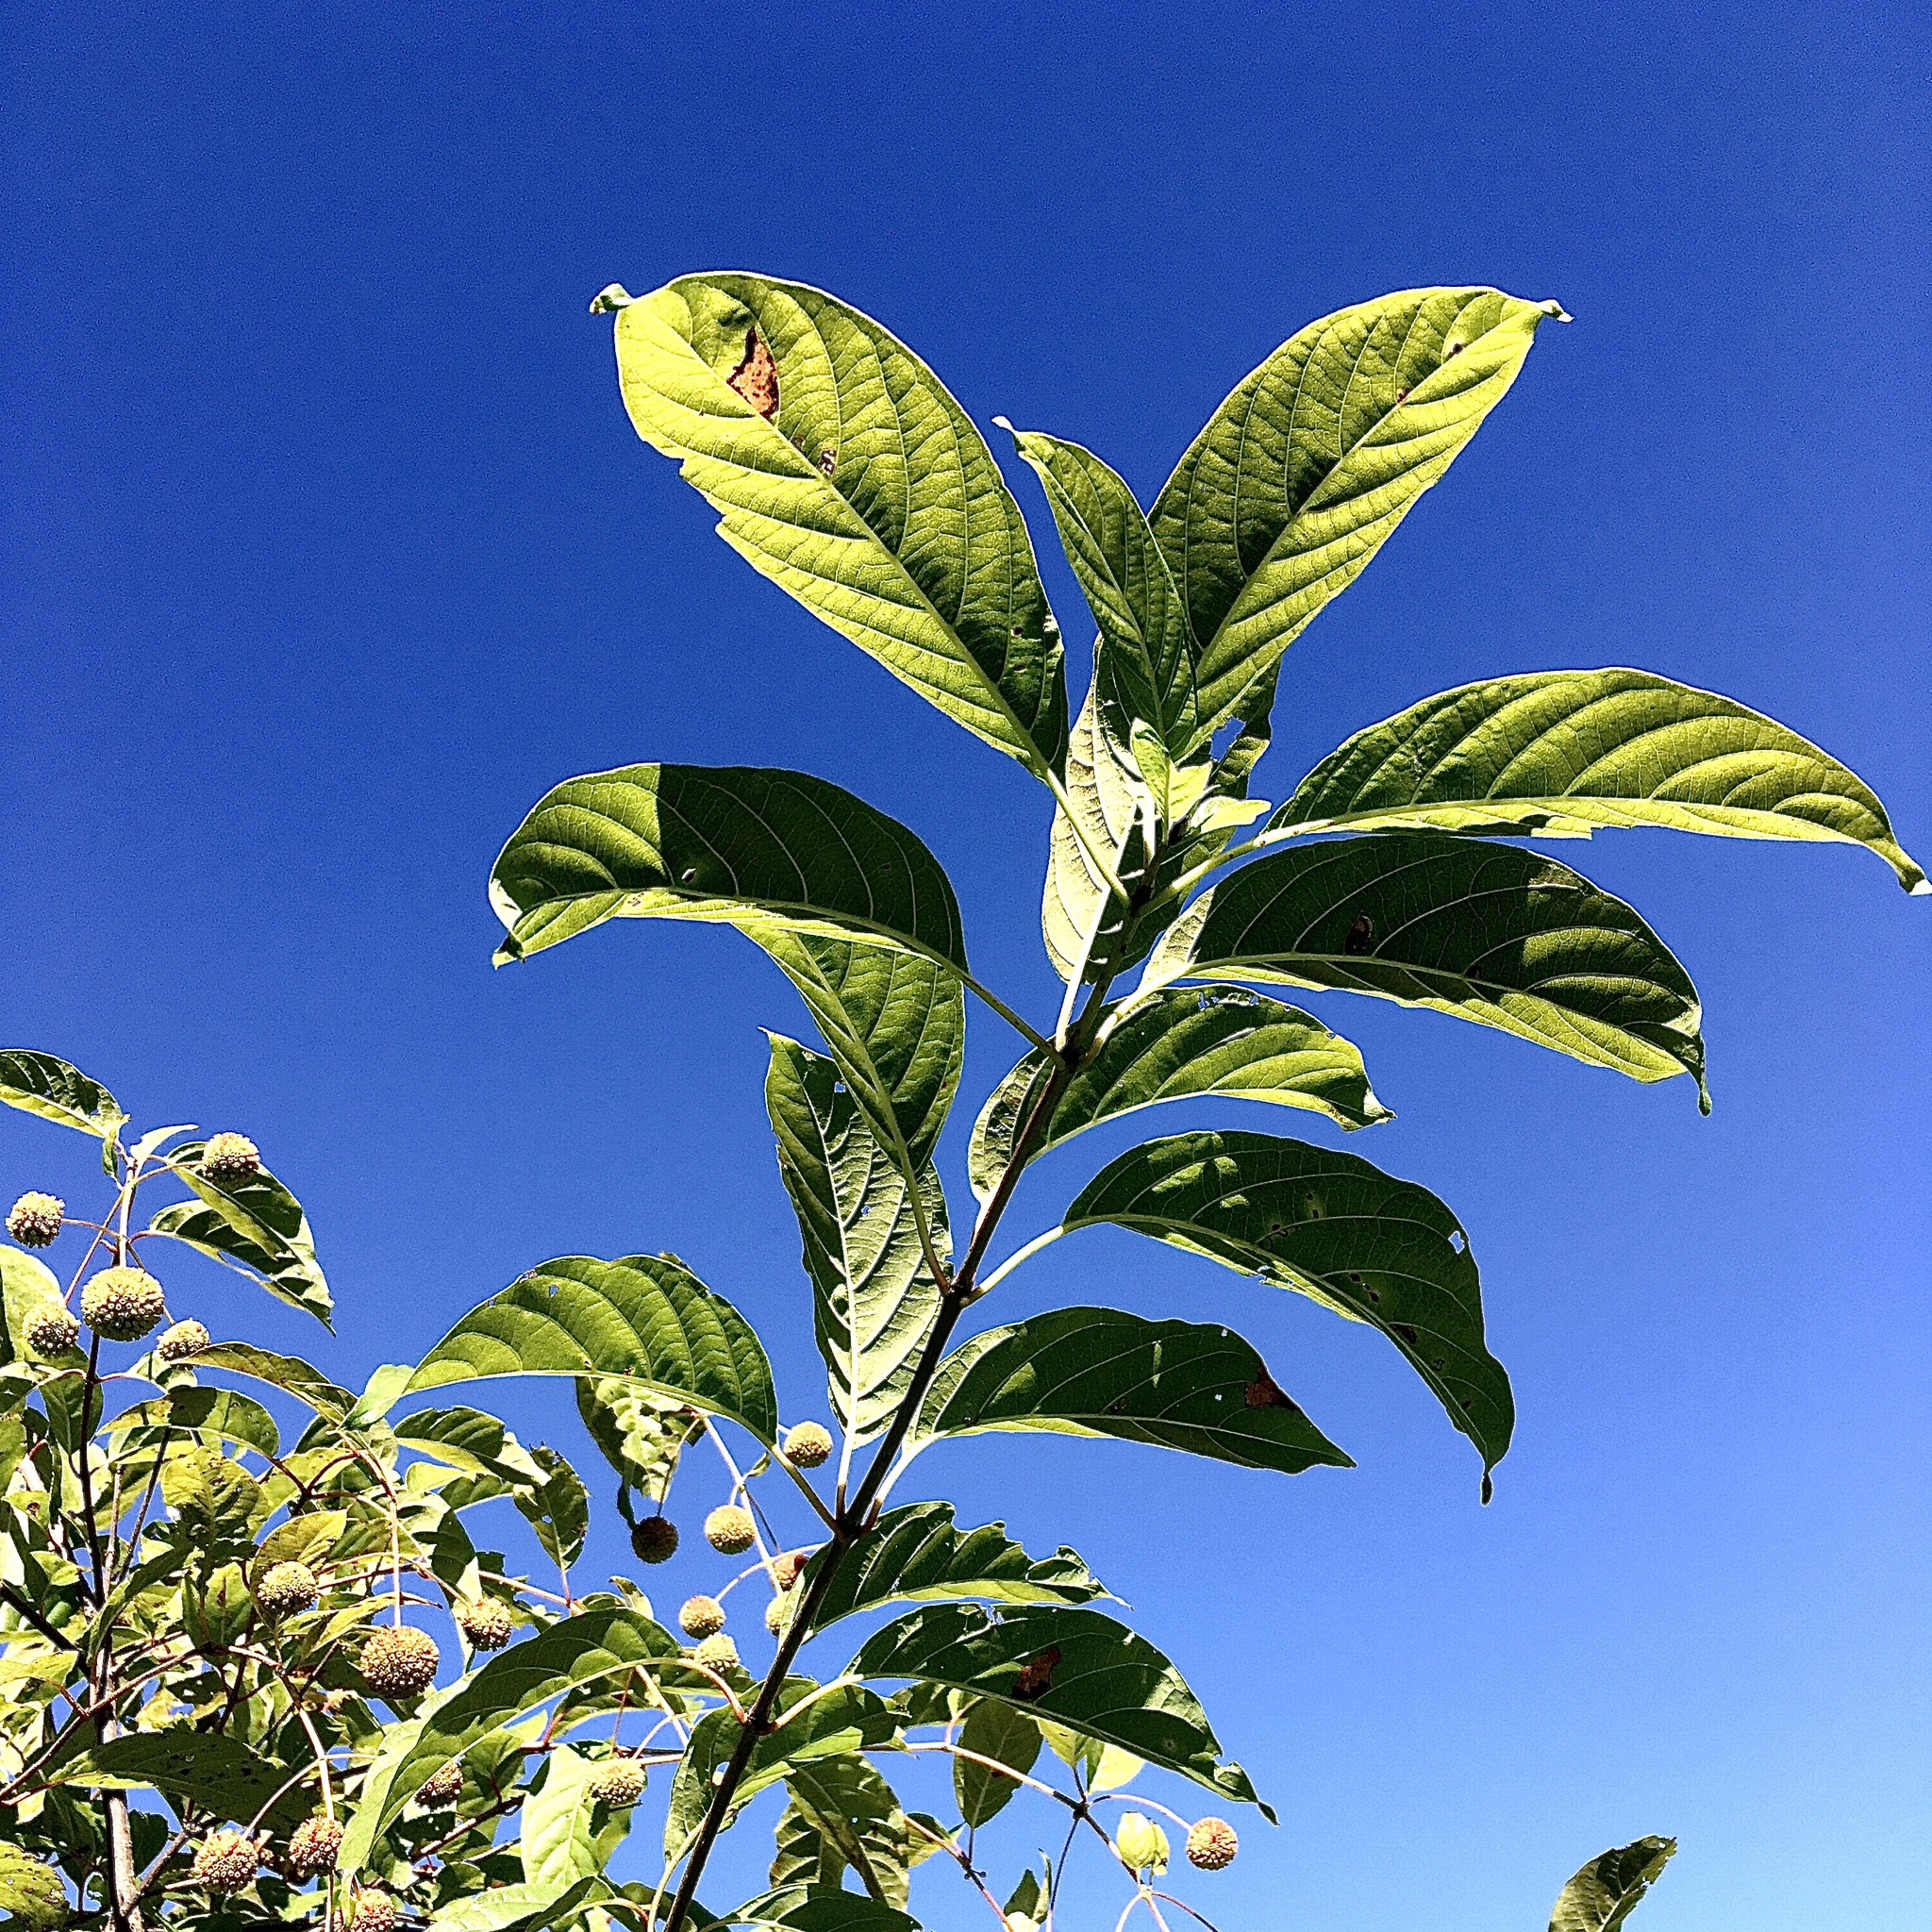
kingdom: Plantae
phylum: Tracheophyta
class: Magnoliopsida
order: Gentianales
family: Rubiaceae
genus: Cephalanthus
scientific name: Cephalanthus occidentalis
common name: Button-willow
